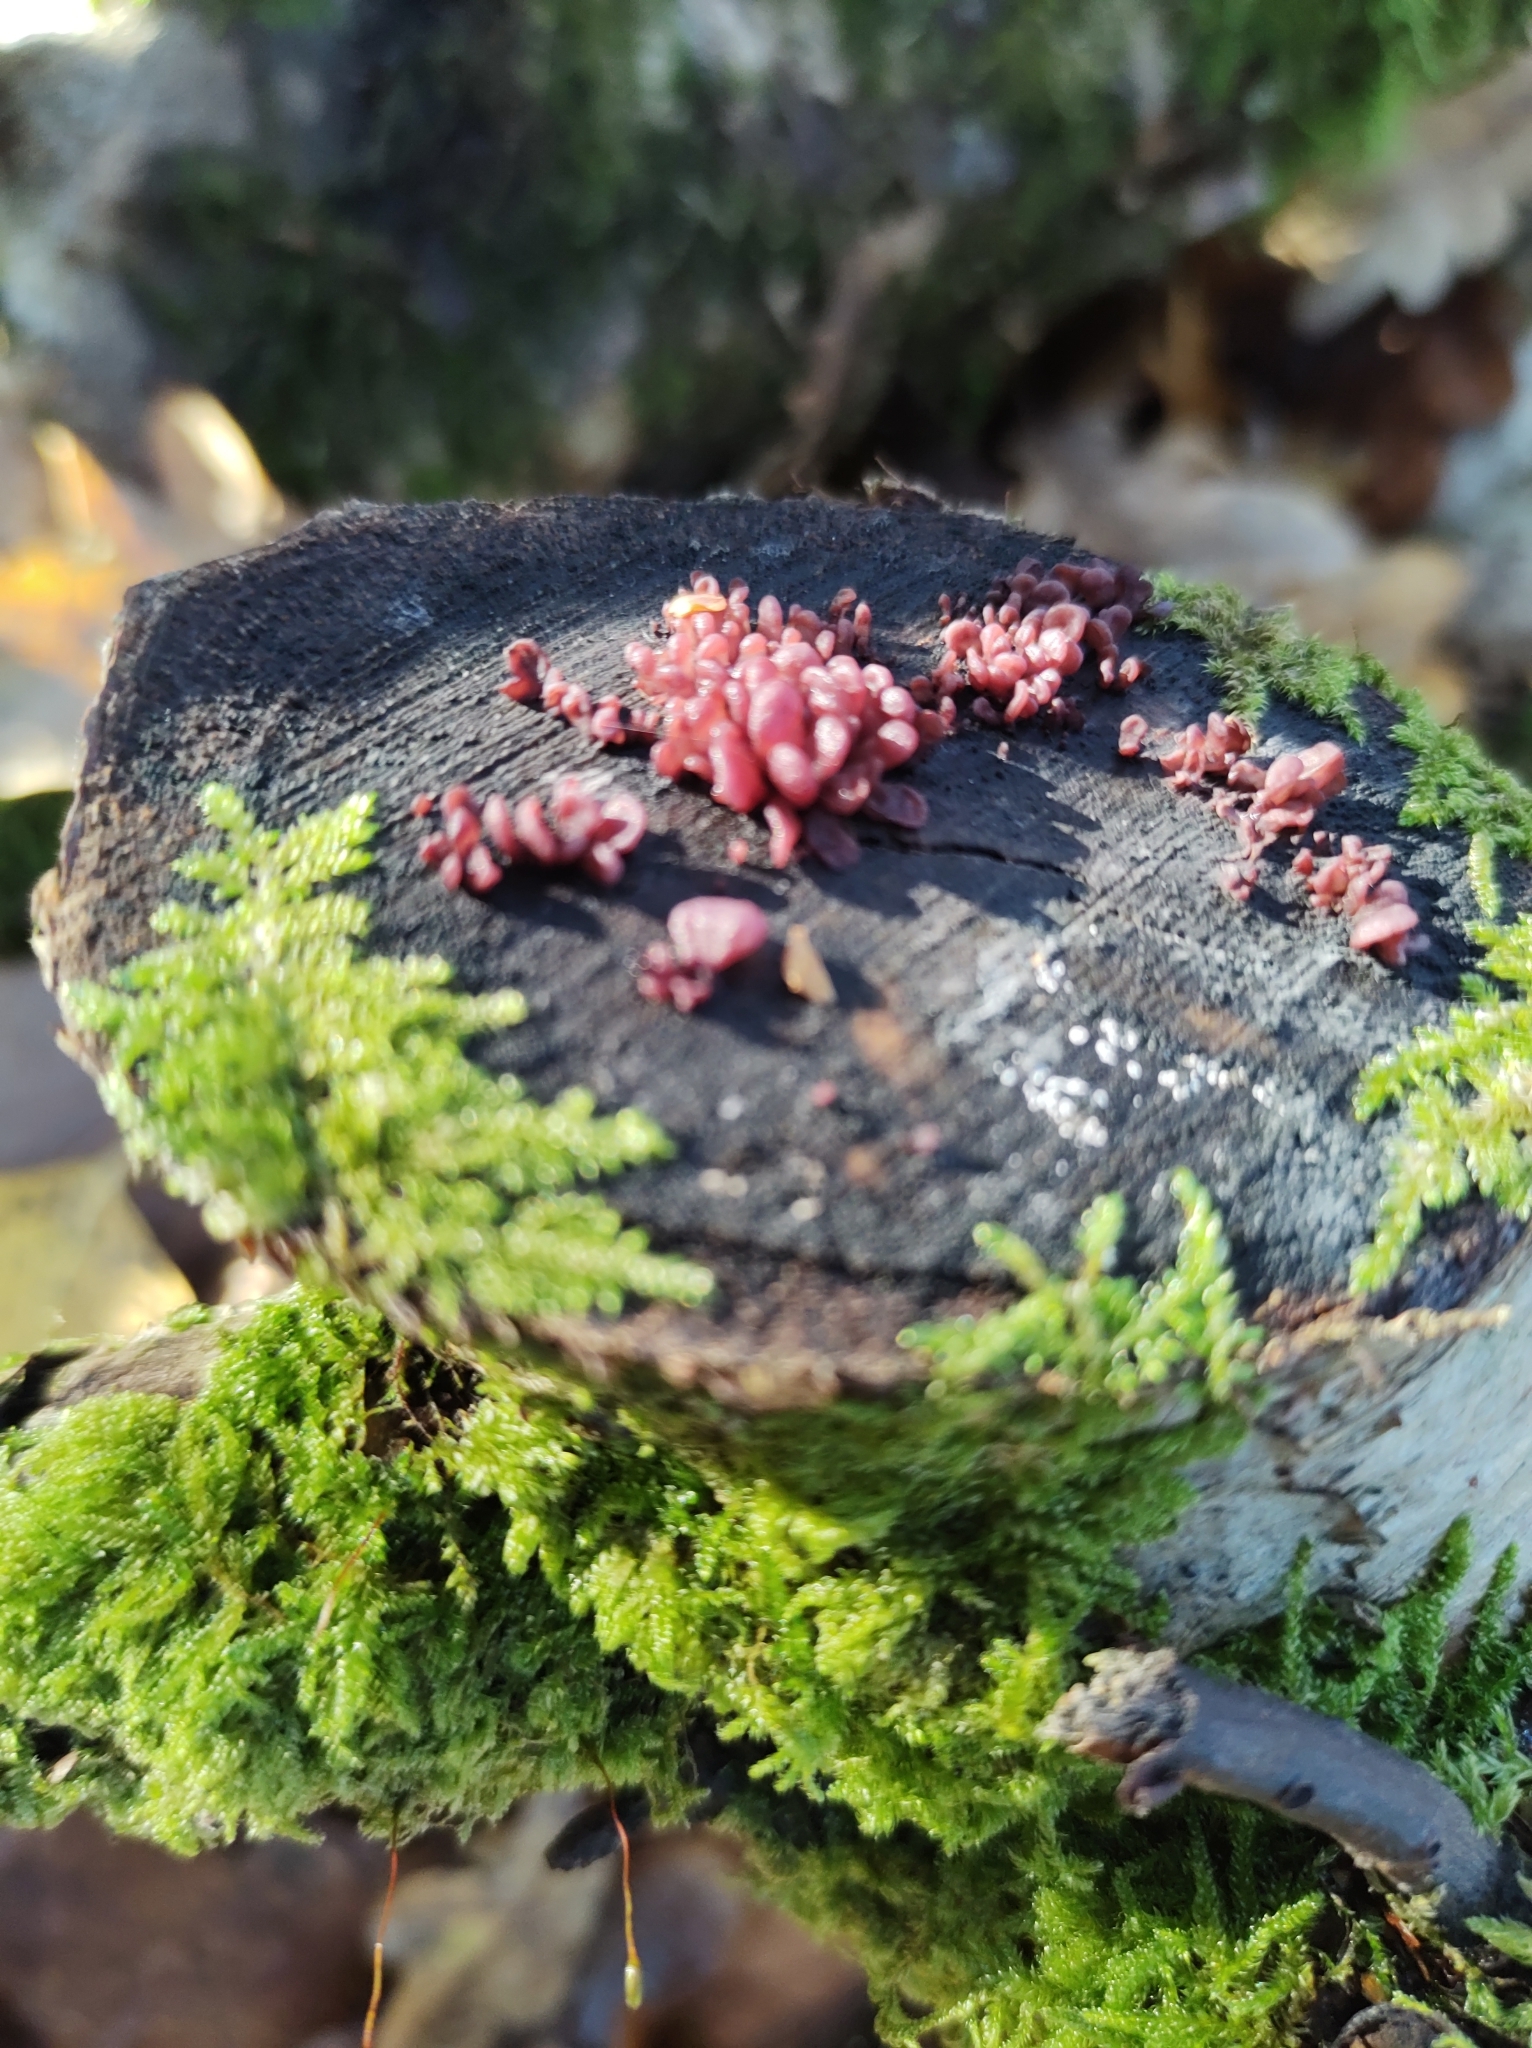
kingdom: Fungi
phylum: Ascomycota
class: Leotiomycetes
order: Helotiales
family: Gelatinodiscaceae
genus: Ascocoryne
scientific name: Ascocoryne sarcoides
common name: Purple jellydisc
